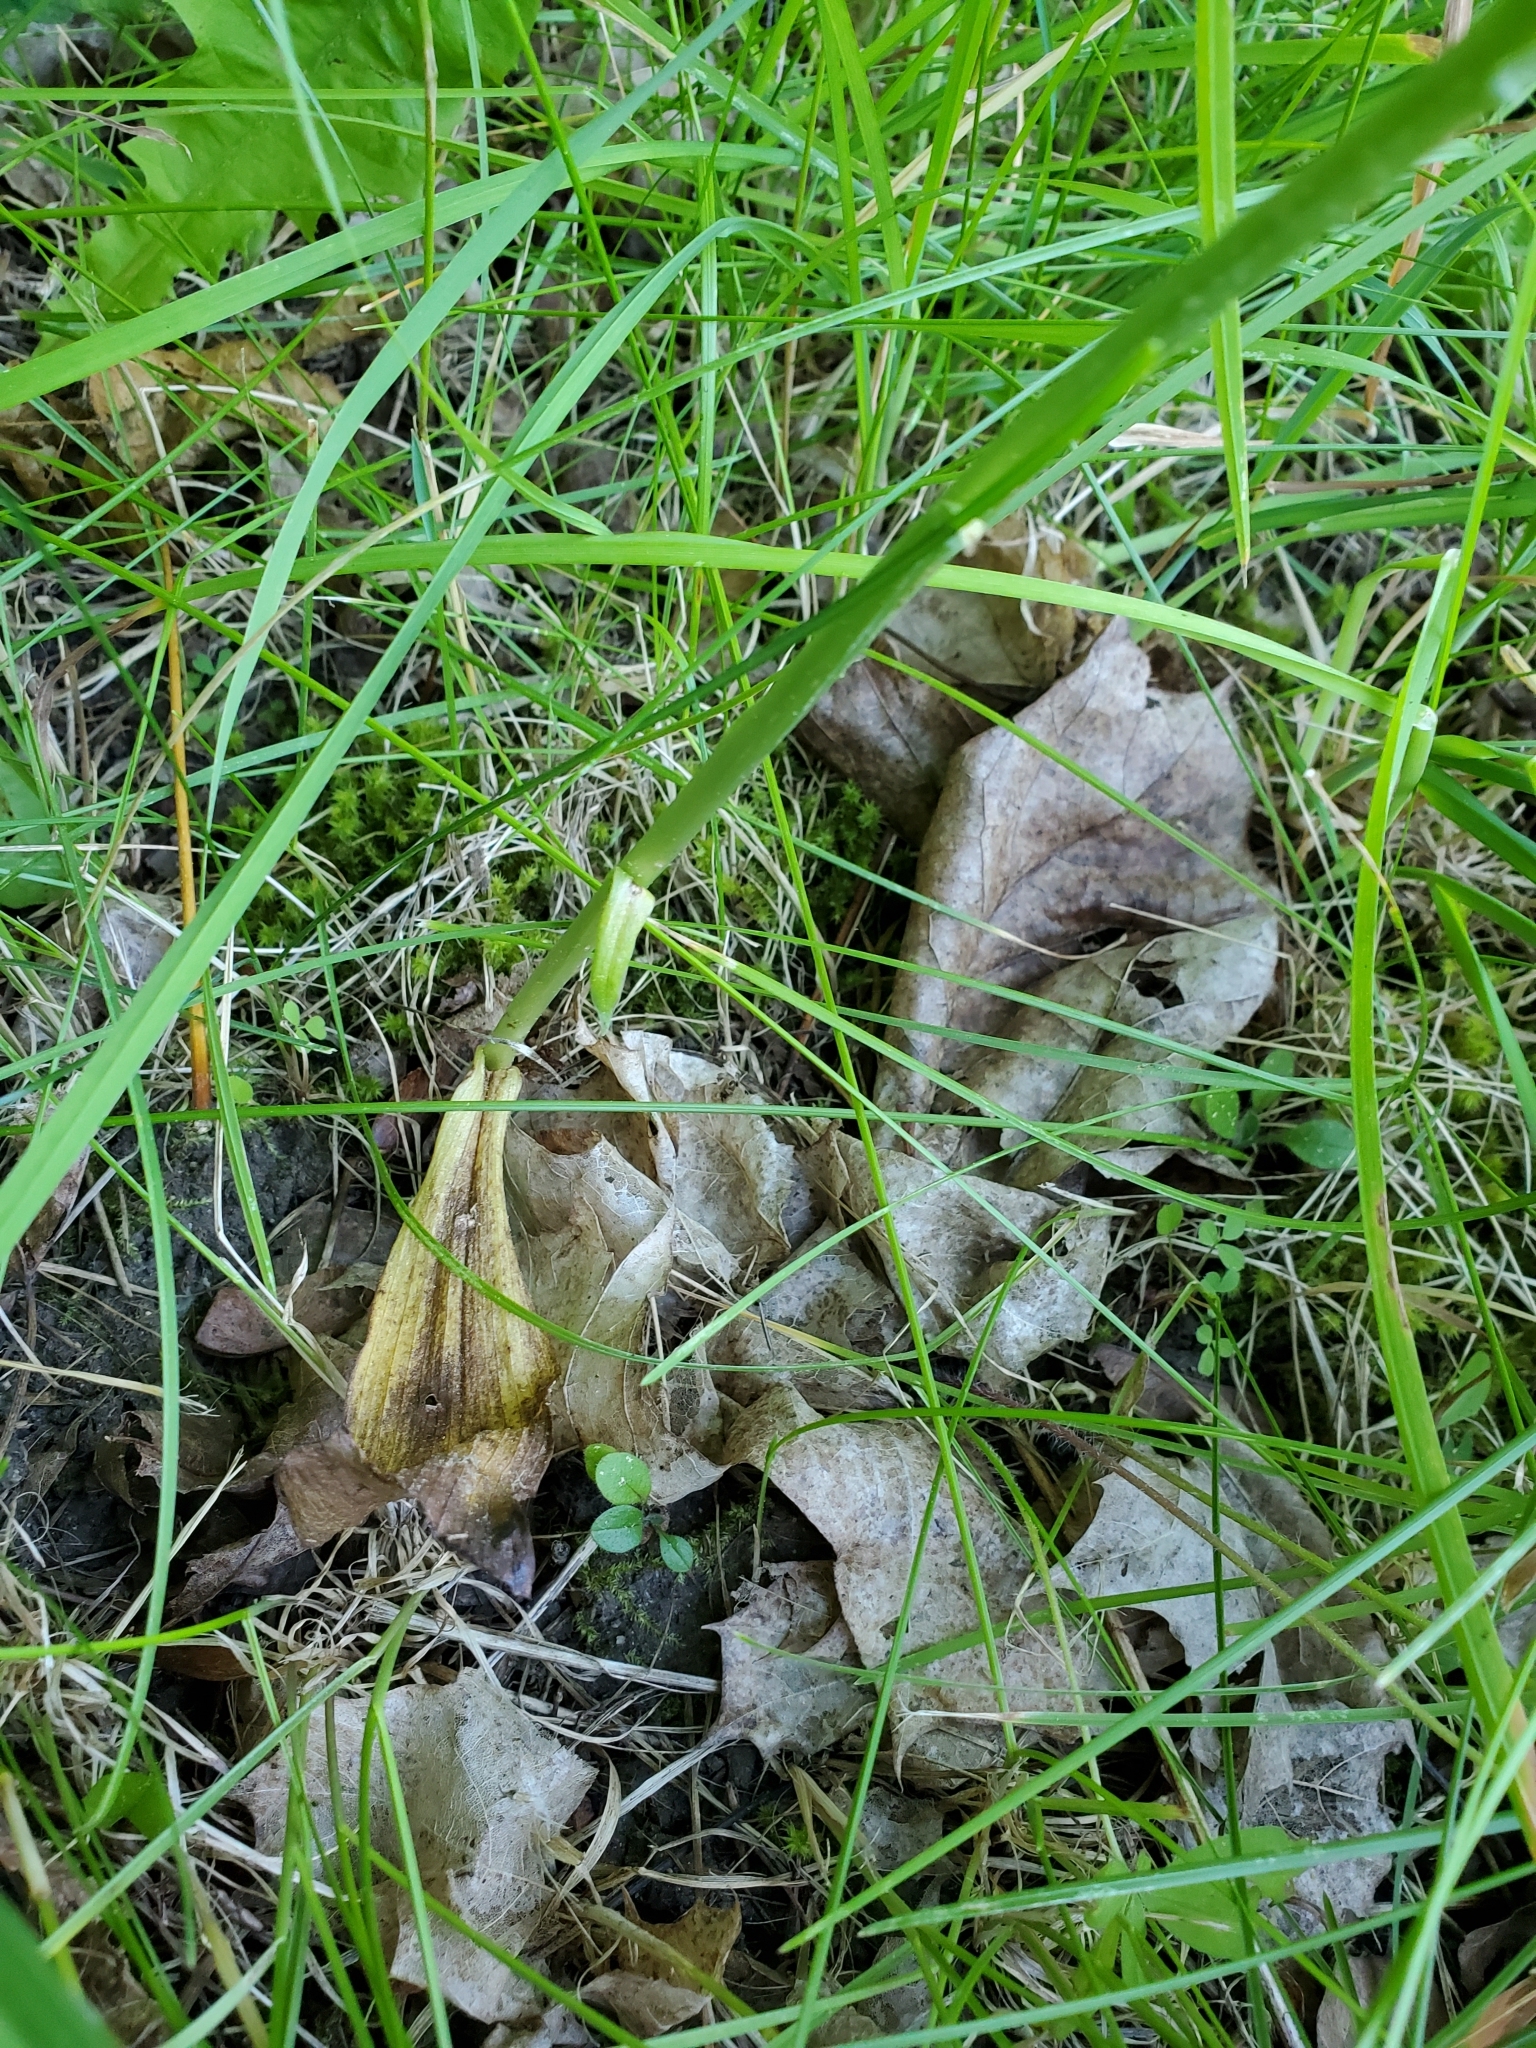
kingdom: Plantae
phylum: Tracheophyta
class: Liliopsida
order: Asparagales
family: Orchidaceae
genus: Platanthera
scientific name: Platanthera elegans
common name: Coast piperia
